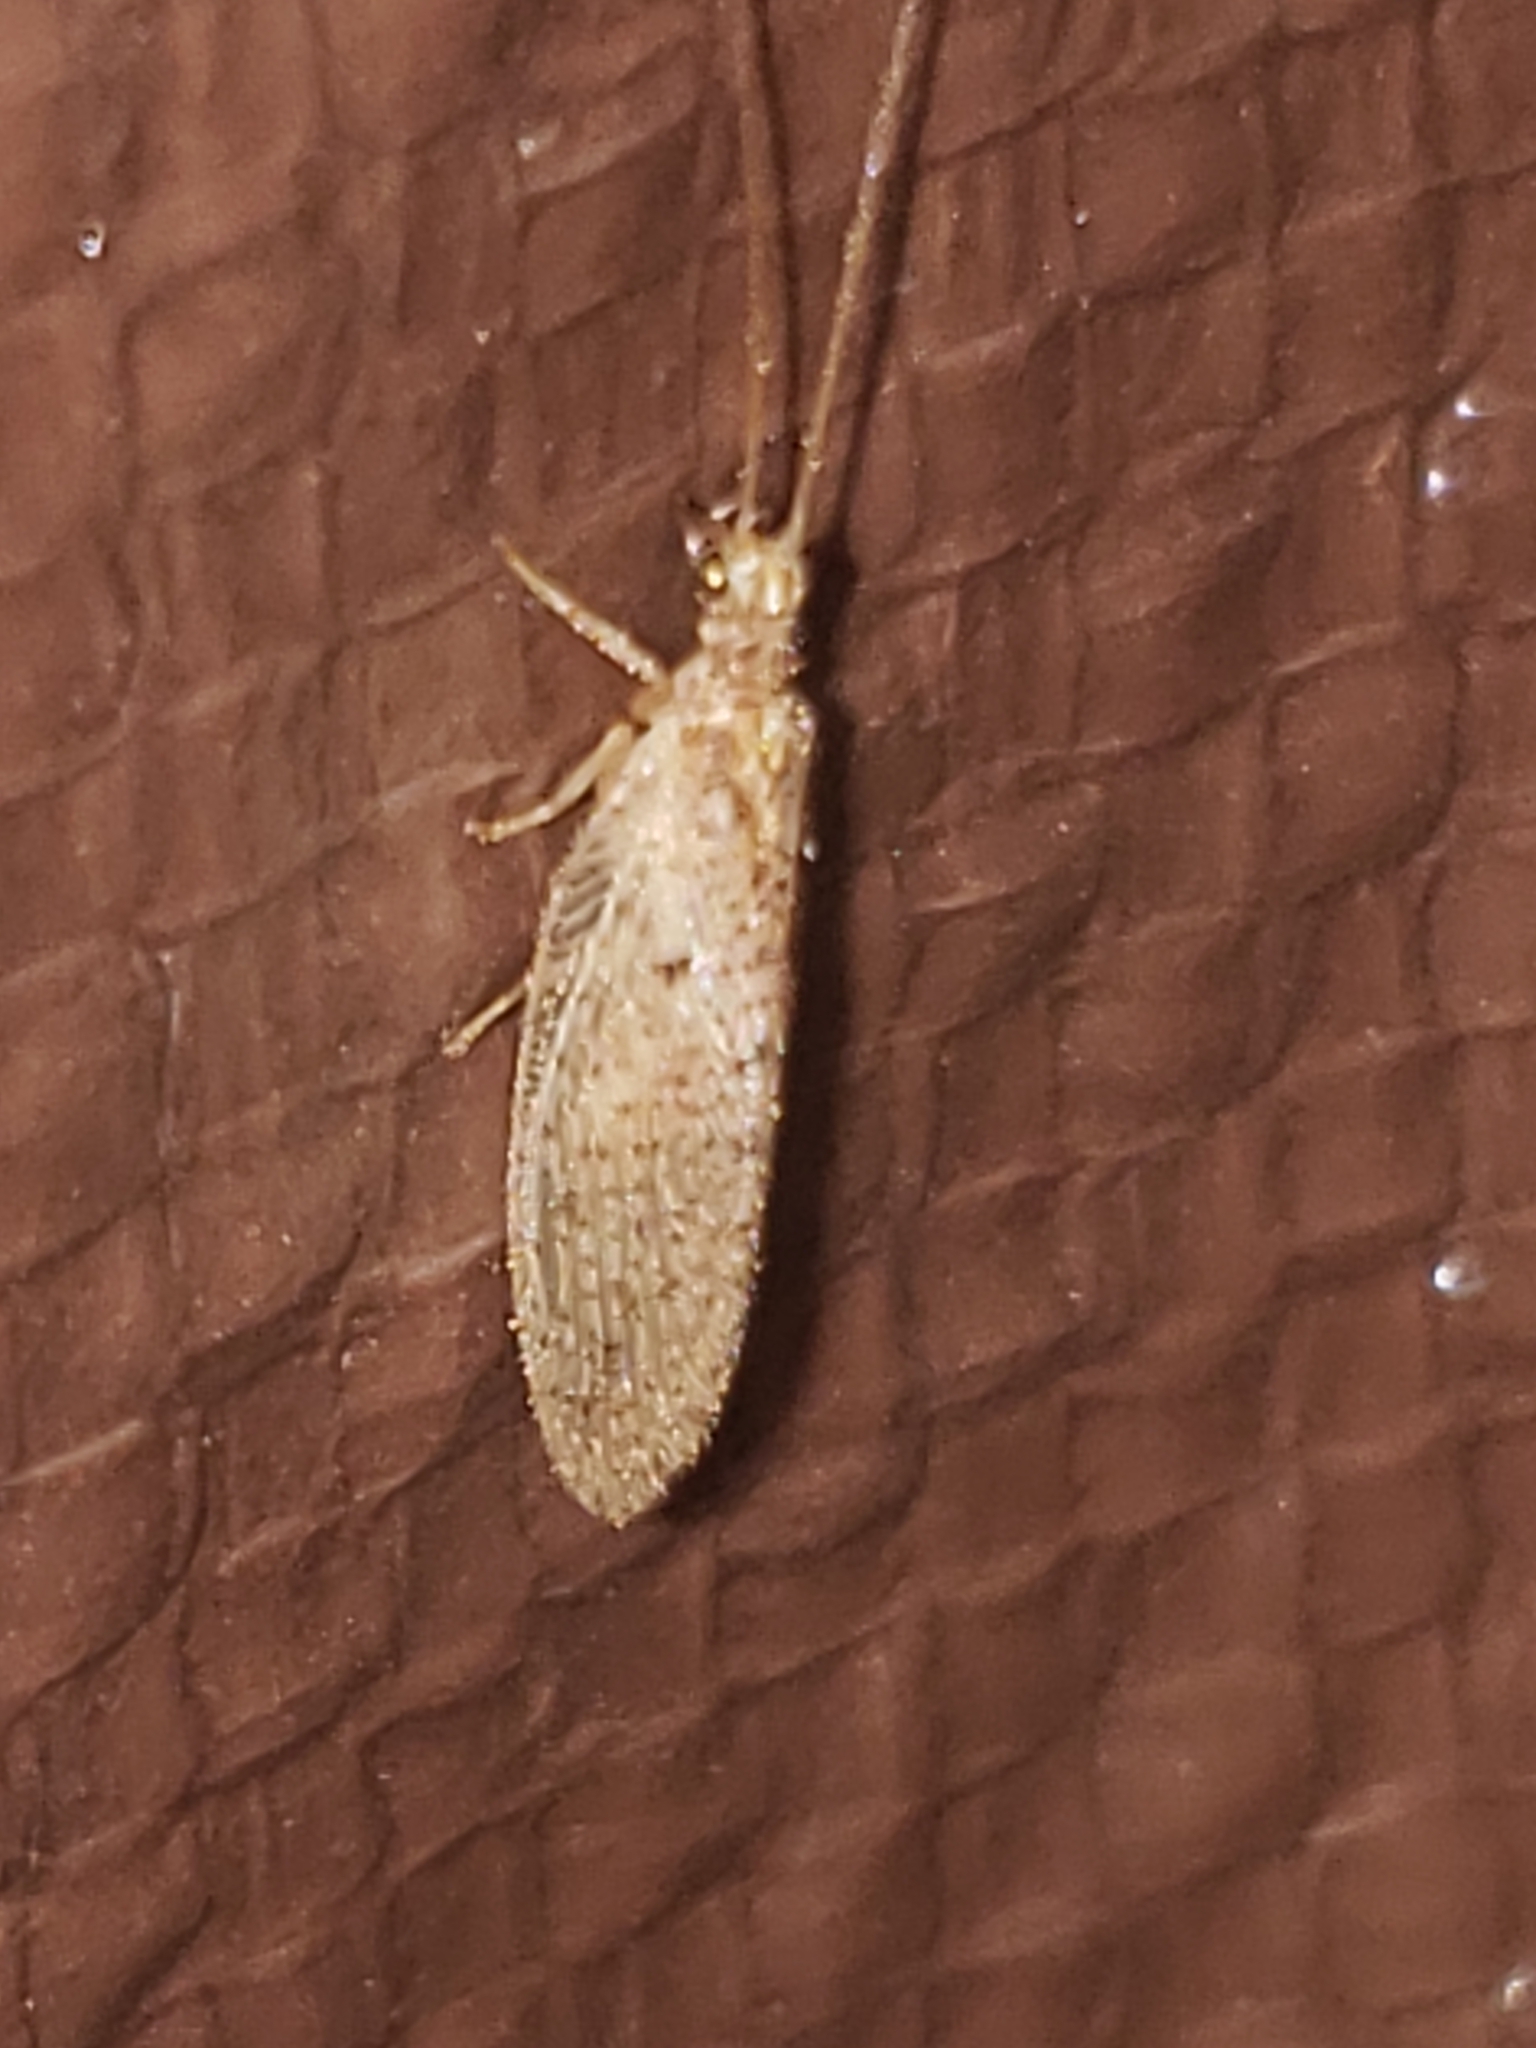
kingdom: Animalia
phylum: Arthropoda
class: Insecta
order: Neuroptera
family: Hemerobiidae
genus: Micromus
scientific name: Micromus subanticus
